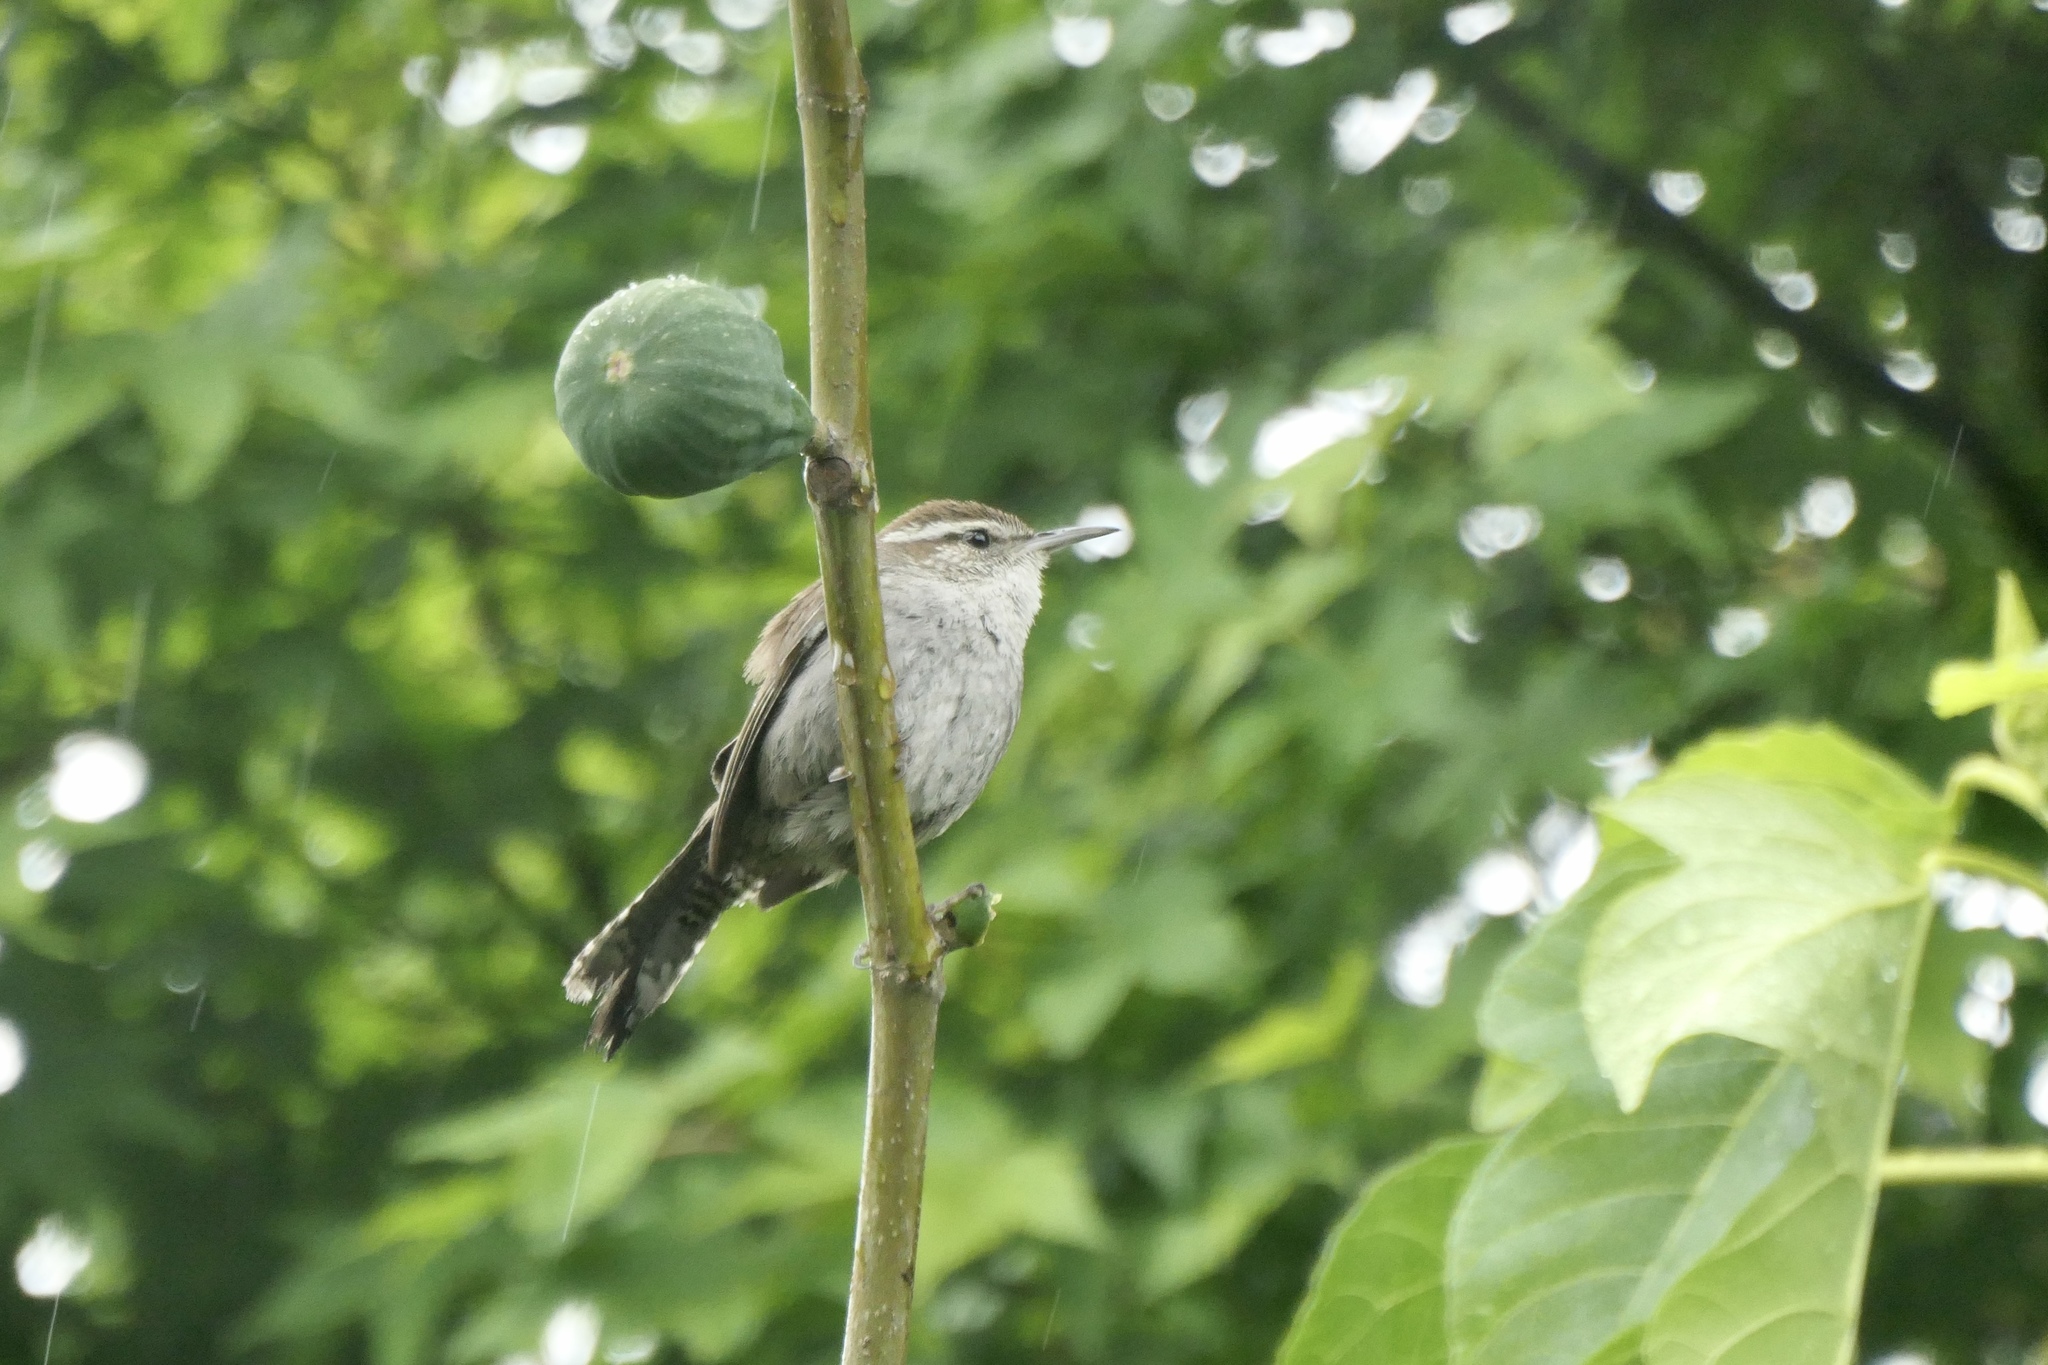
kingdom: Animalia
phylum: Chordata
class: Aves
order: Passeriformes
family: Troglodytidae
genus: Thryomanes
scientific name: Thryomanes bewickii
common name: Bewick's wren
